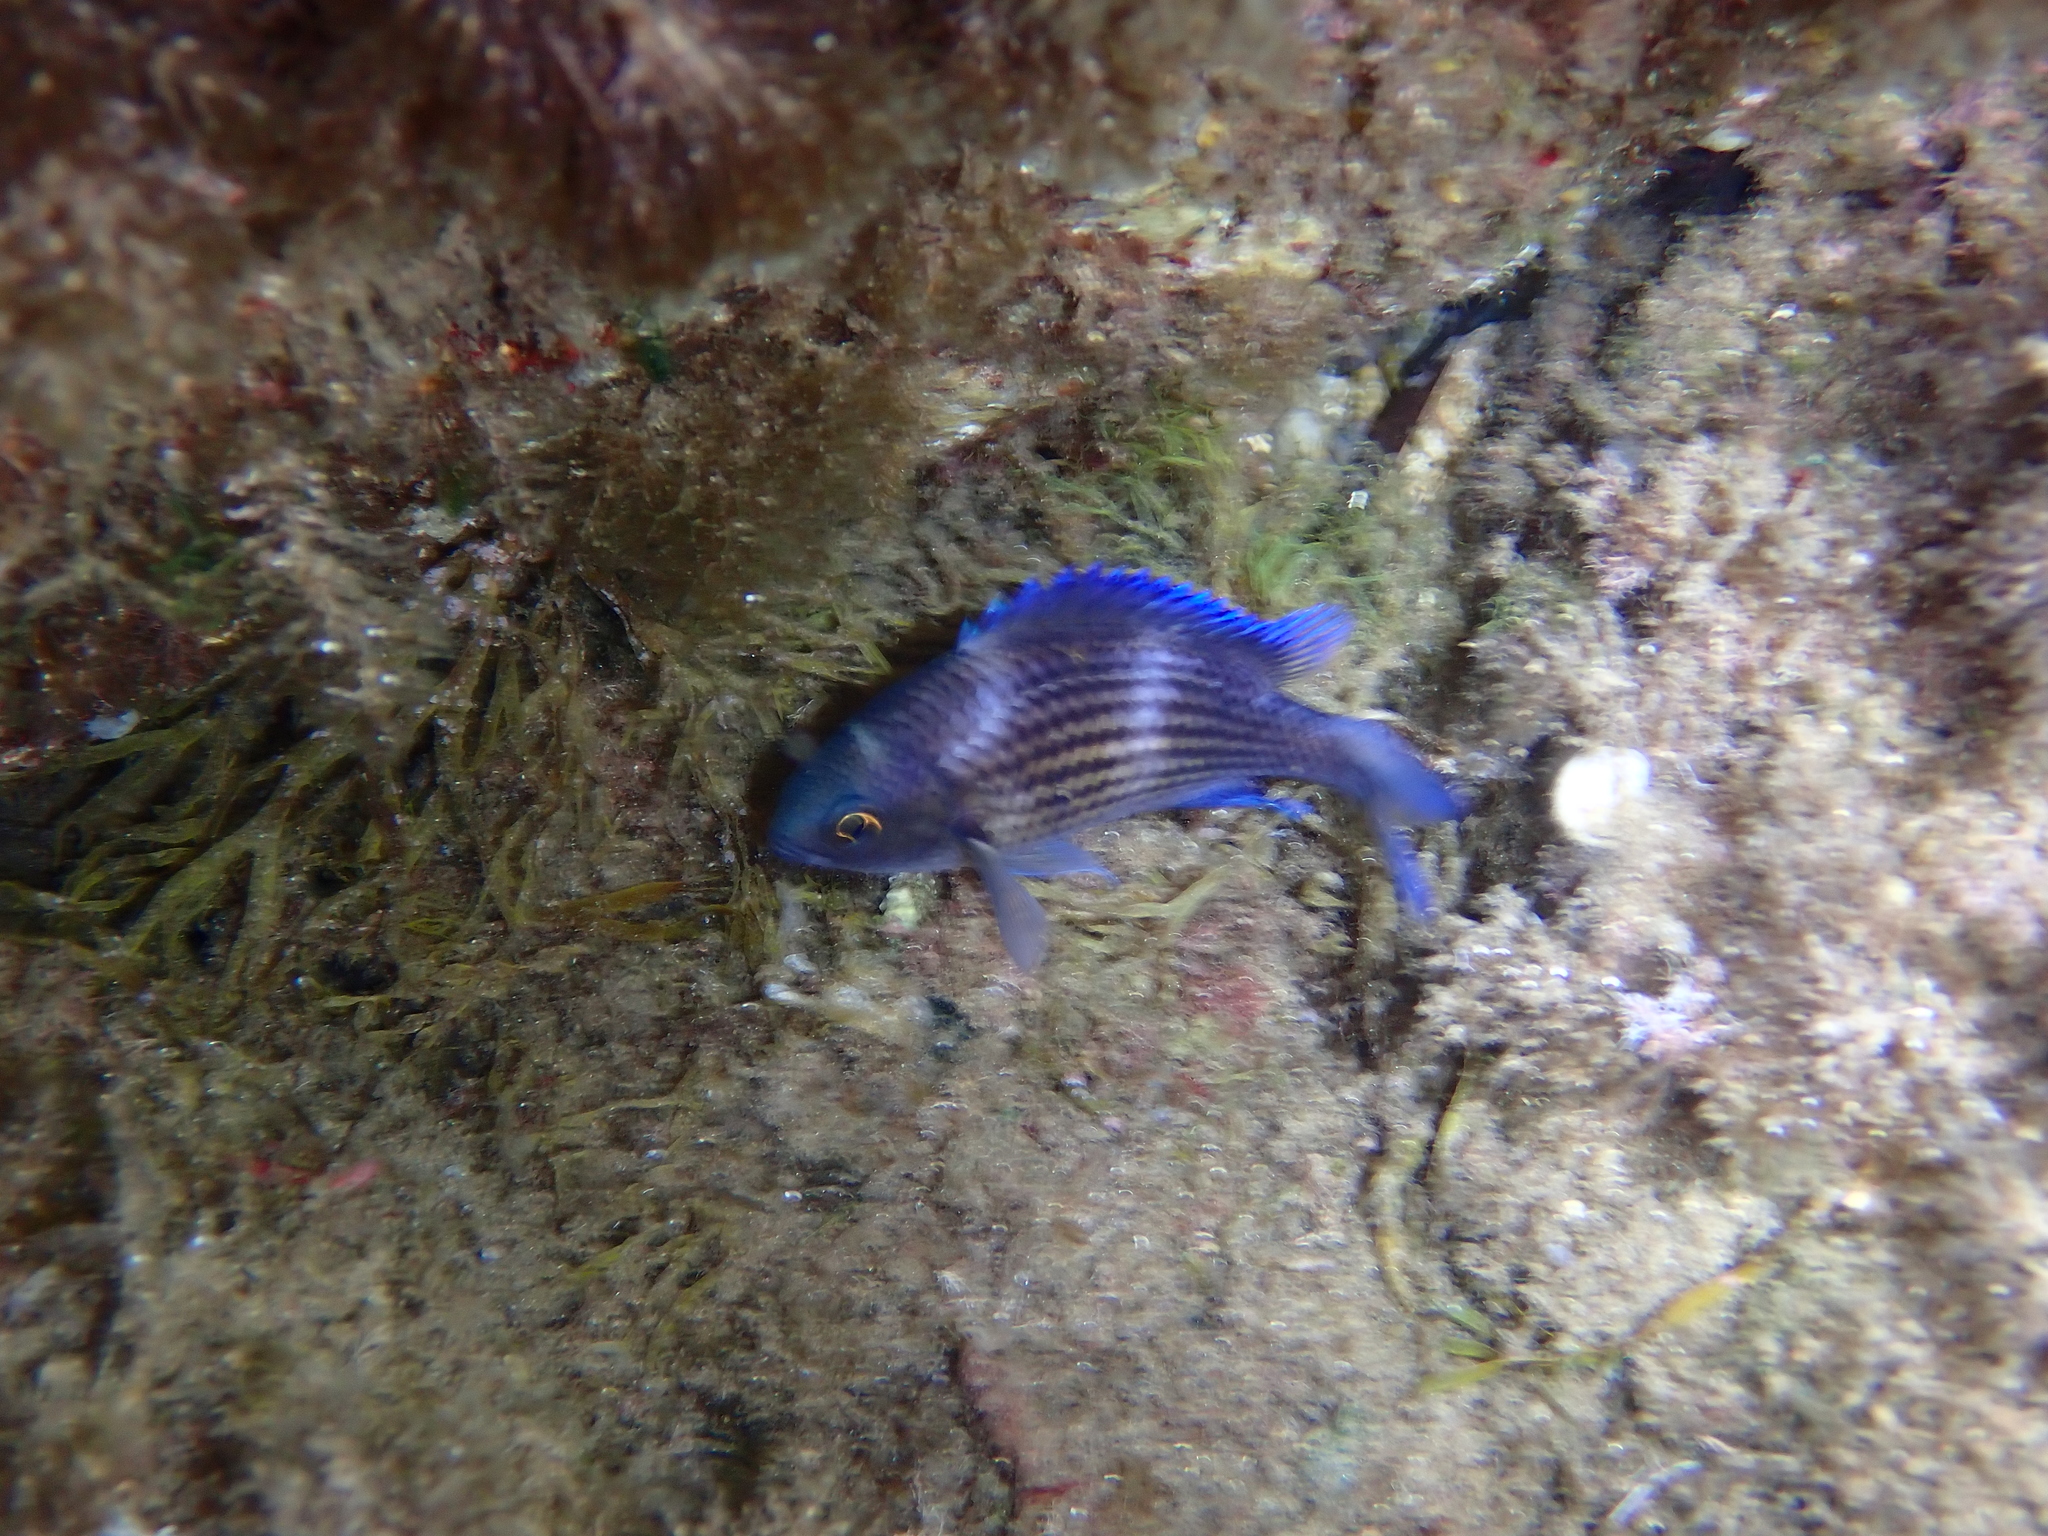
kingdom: Animalia
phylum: Chordata
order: Perciformes
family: Pomacentridae
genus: Chromis
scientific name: Chromis chromis
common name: Damselfish
